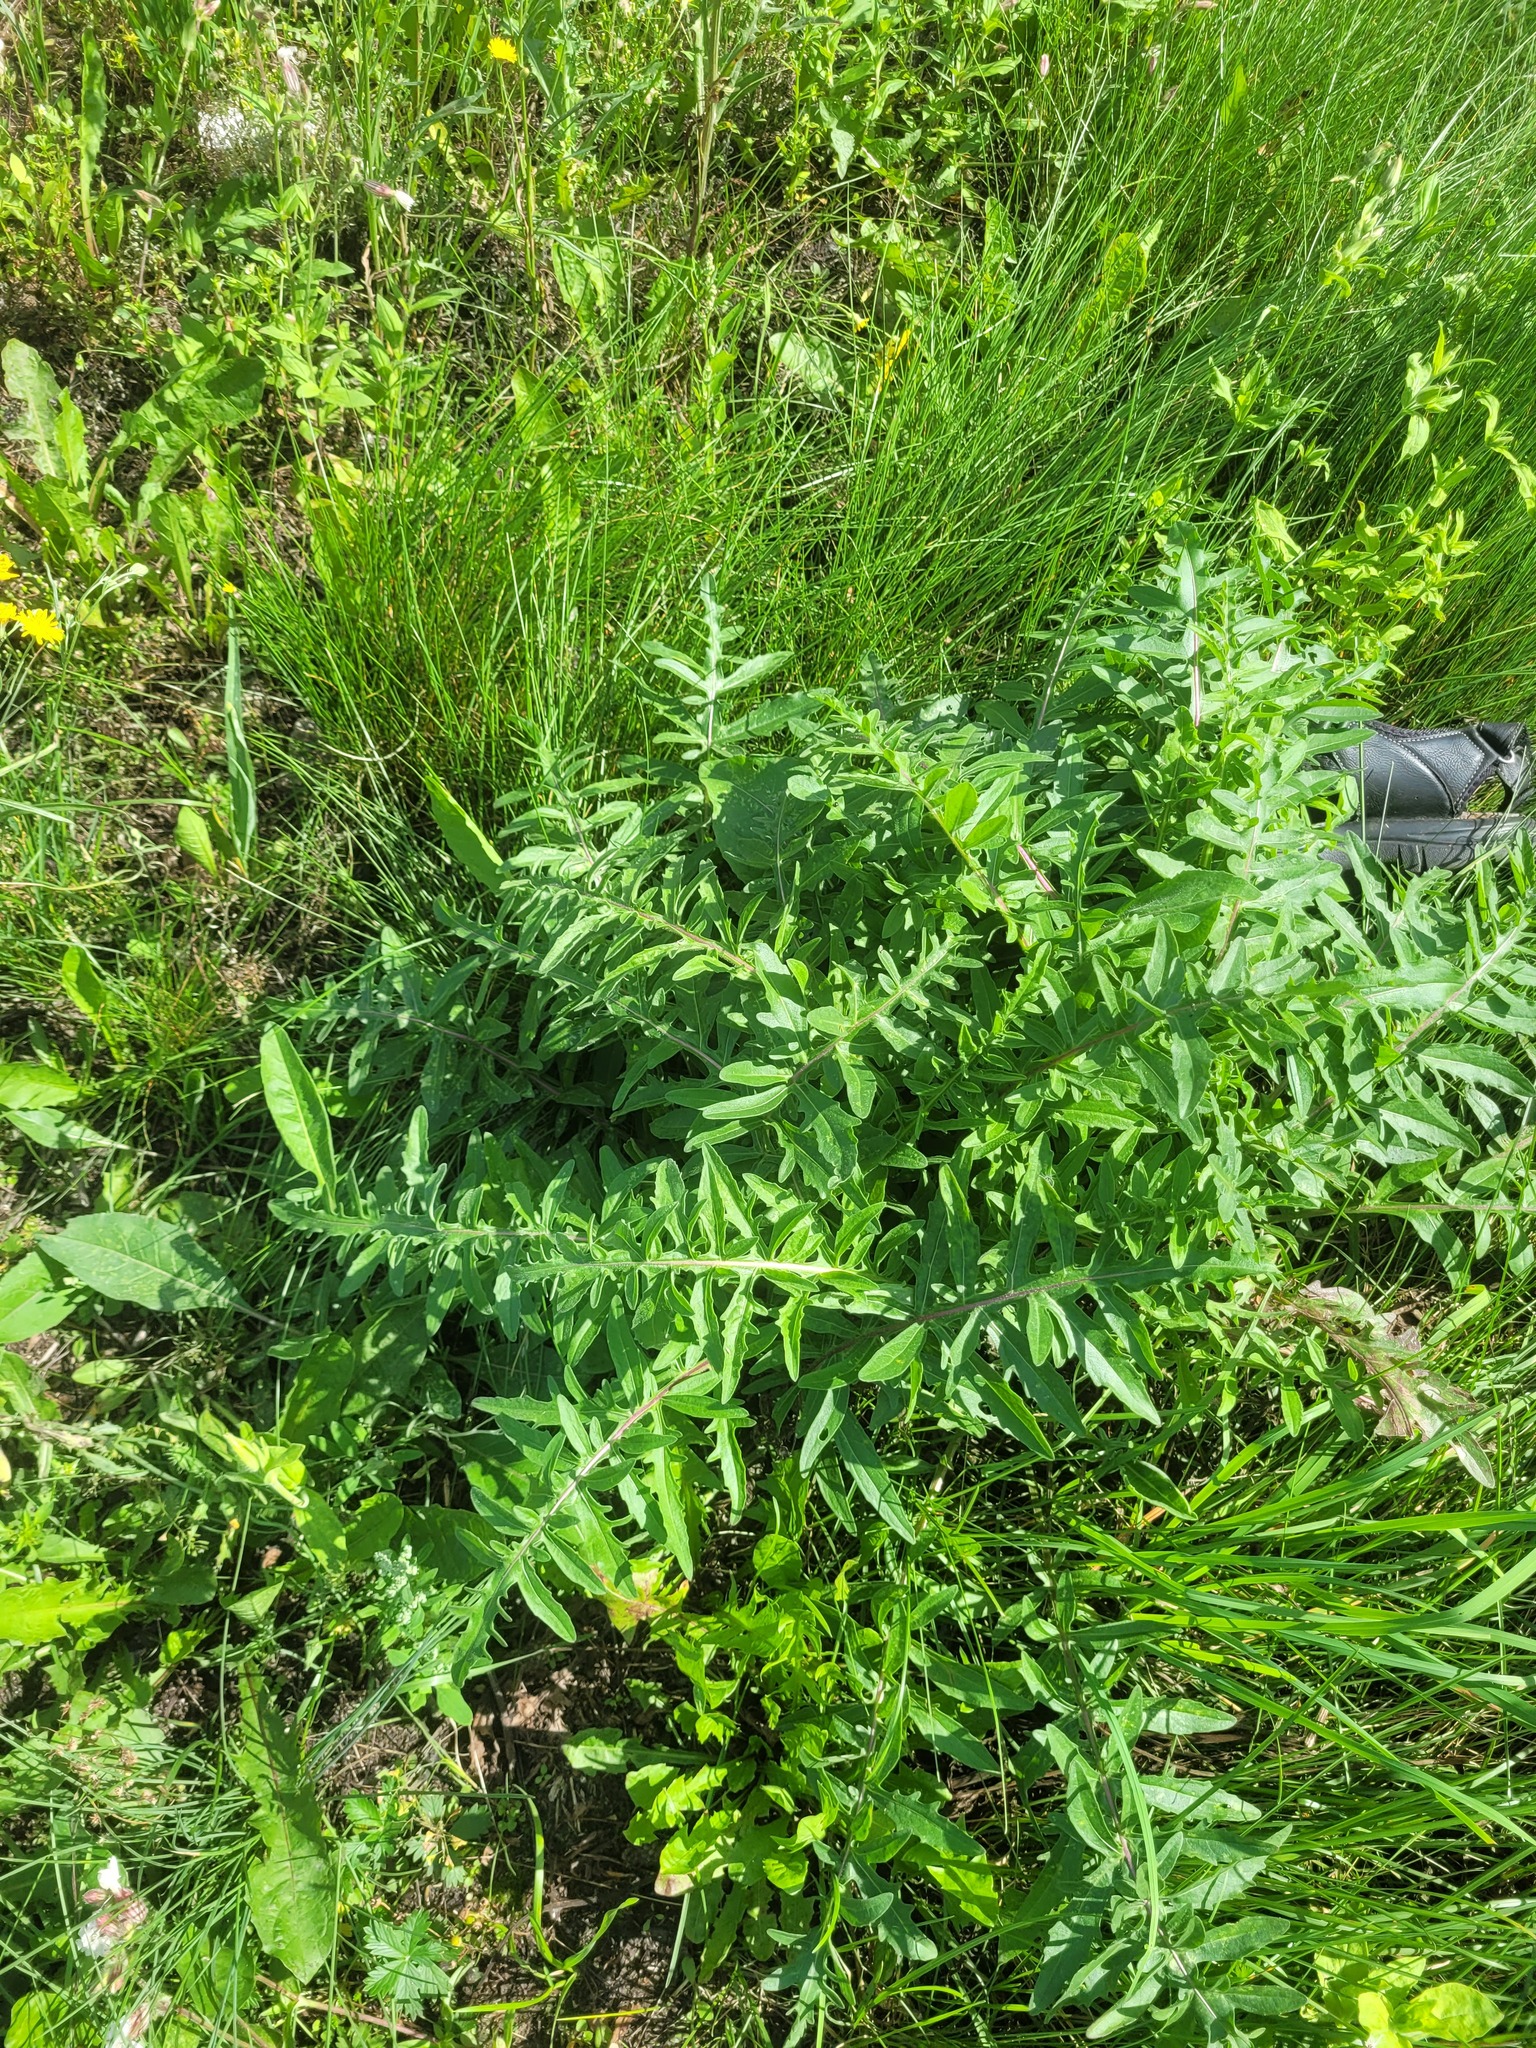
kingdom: Plantae
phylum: Tracheophyta
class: Magnoliopsida
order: Asterales
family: Asteraceae
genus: Centaurea
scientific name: Centaurea scabiosa
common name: Greater knapweed
